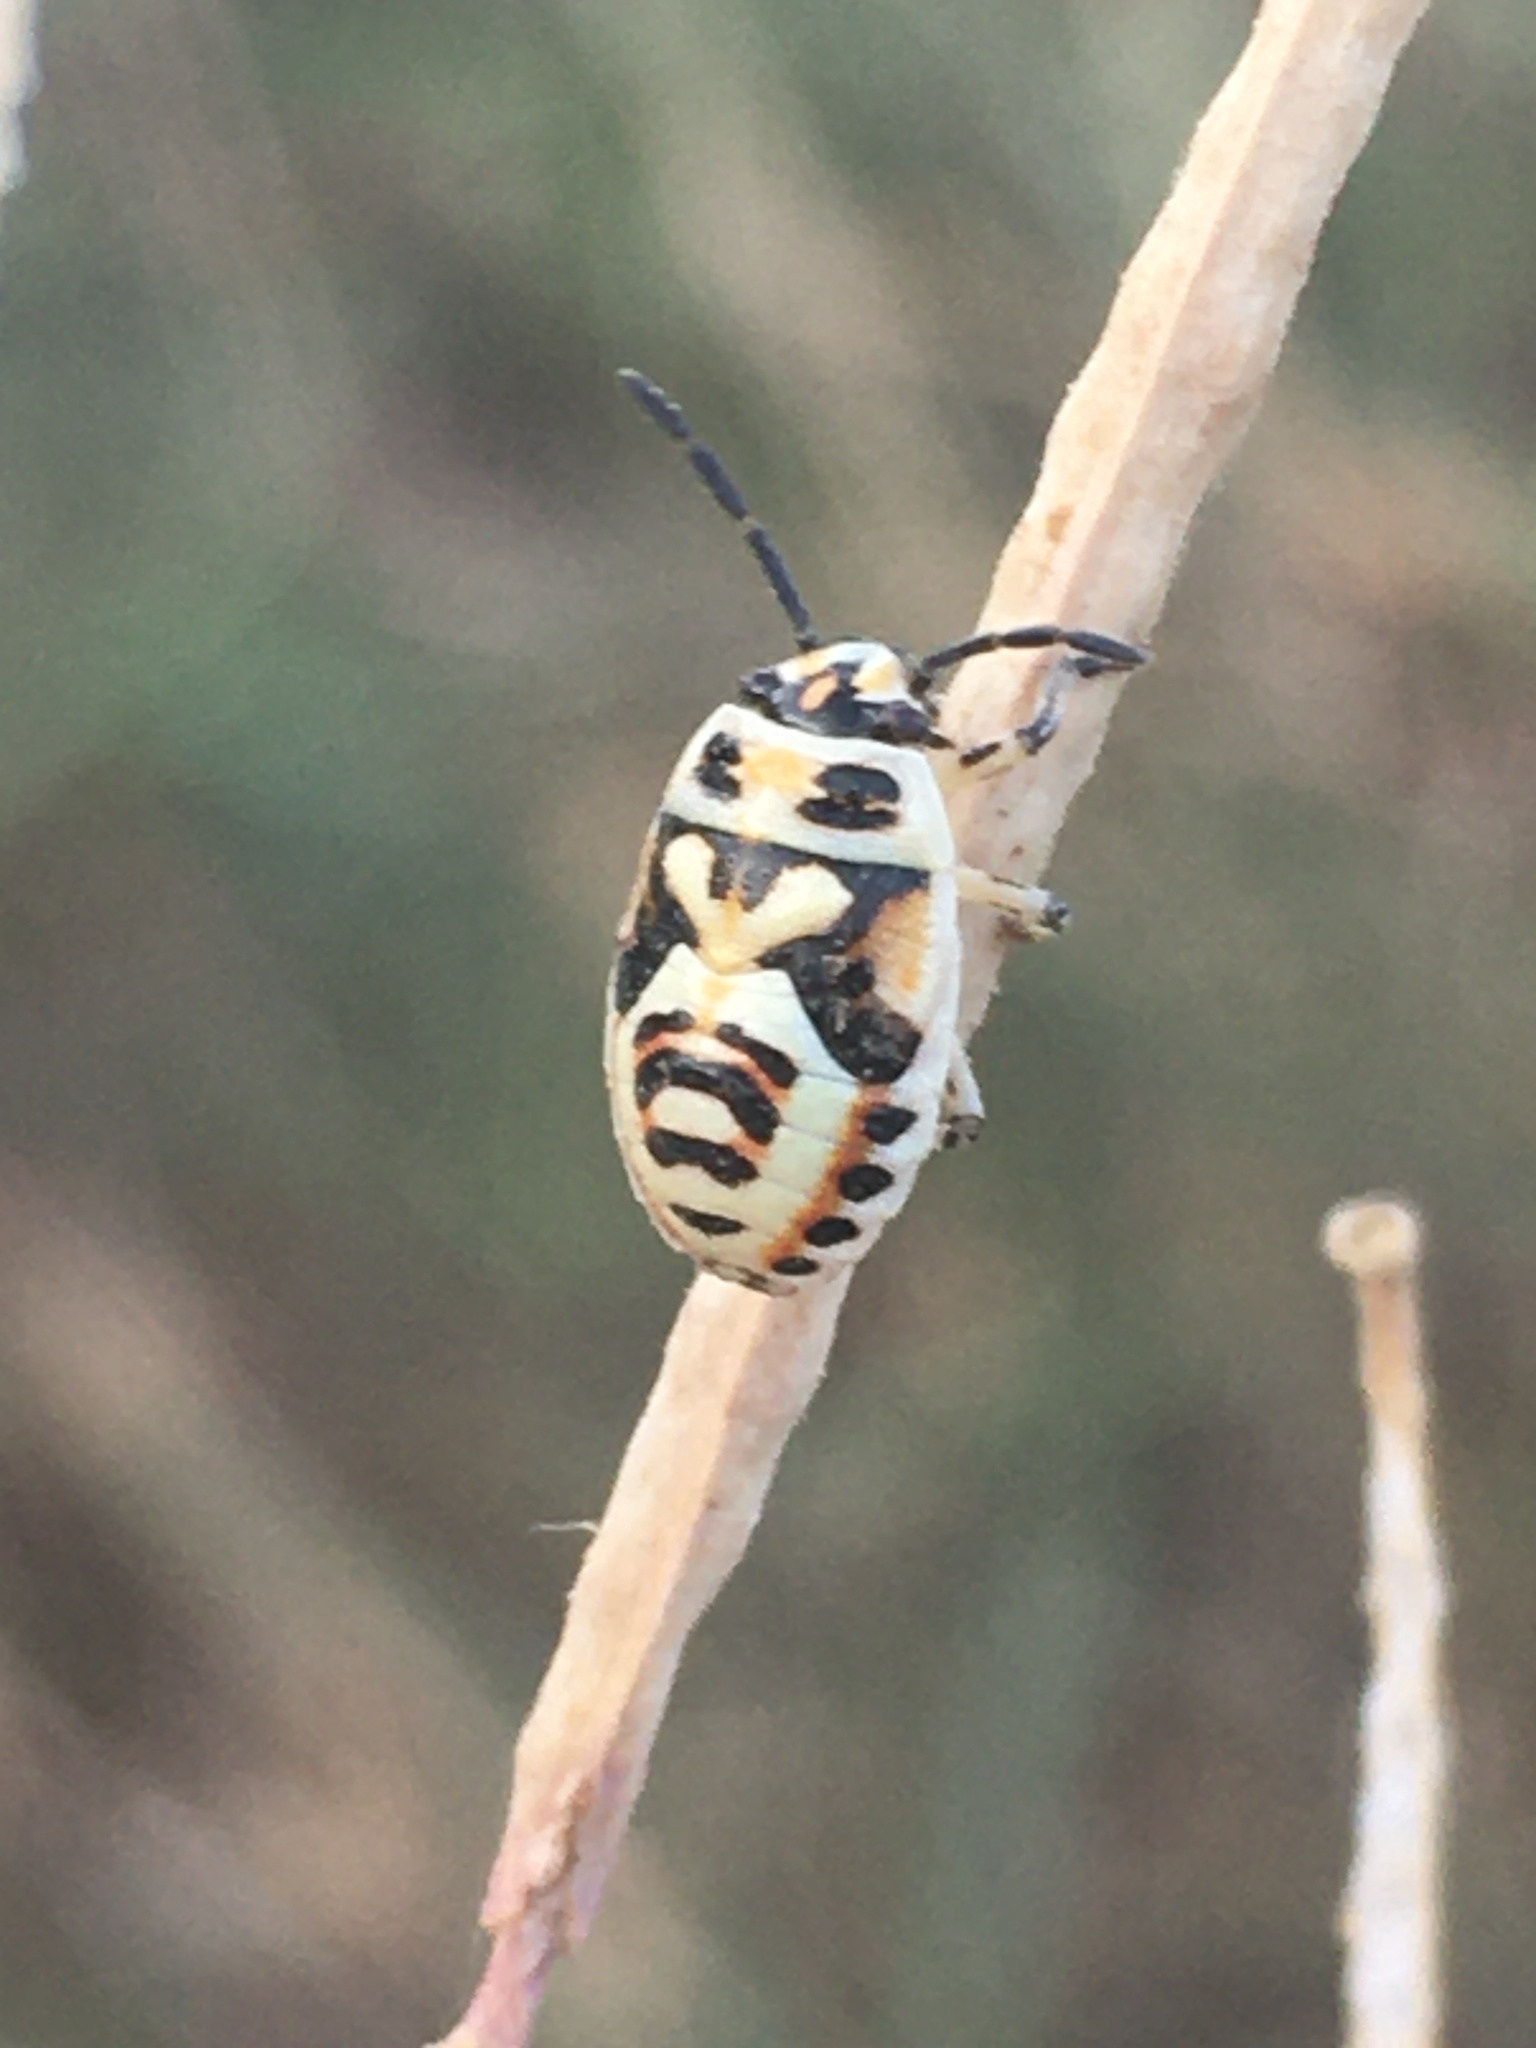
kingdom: Animalia
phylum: Arthropoda
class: Insecta
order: Hemiptera
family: Pentatomidae
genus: Eurydema
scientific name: Eurydema ornata
